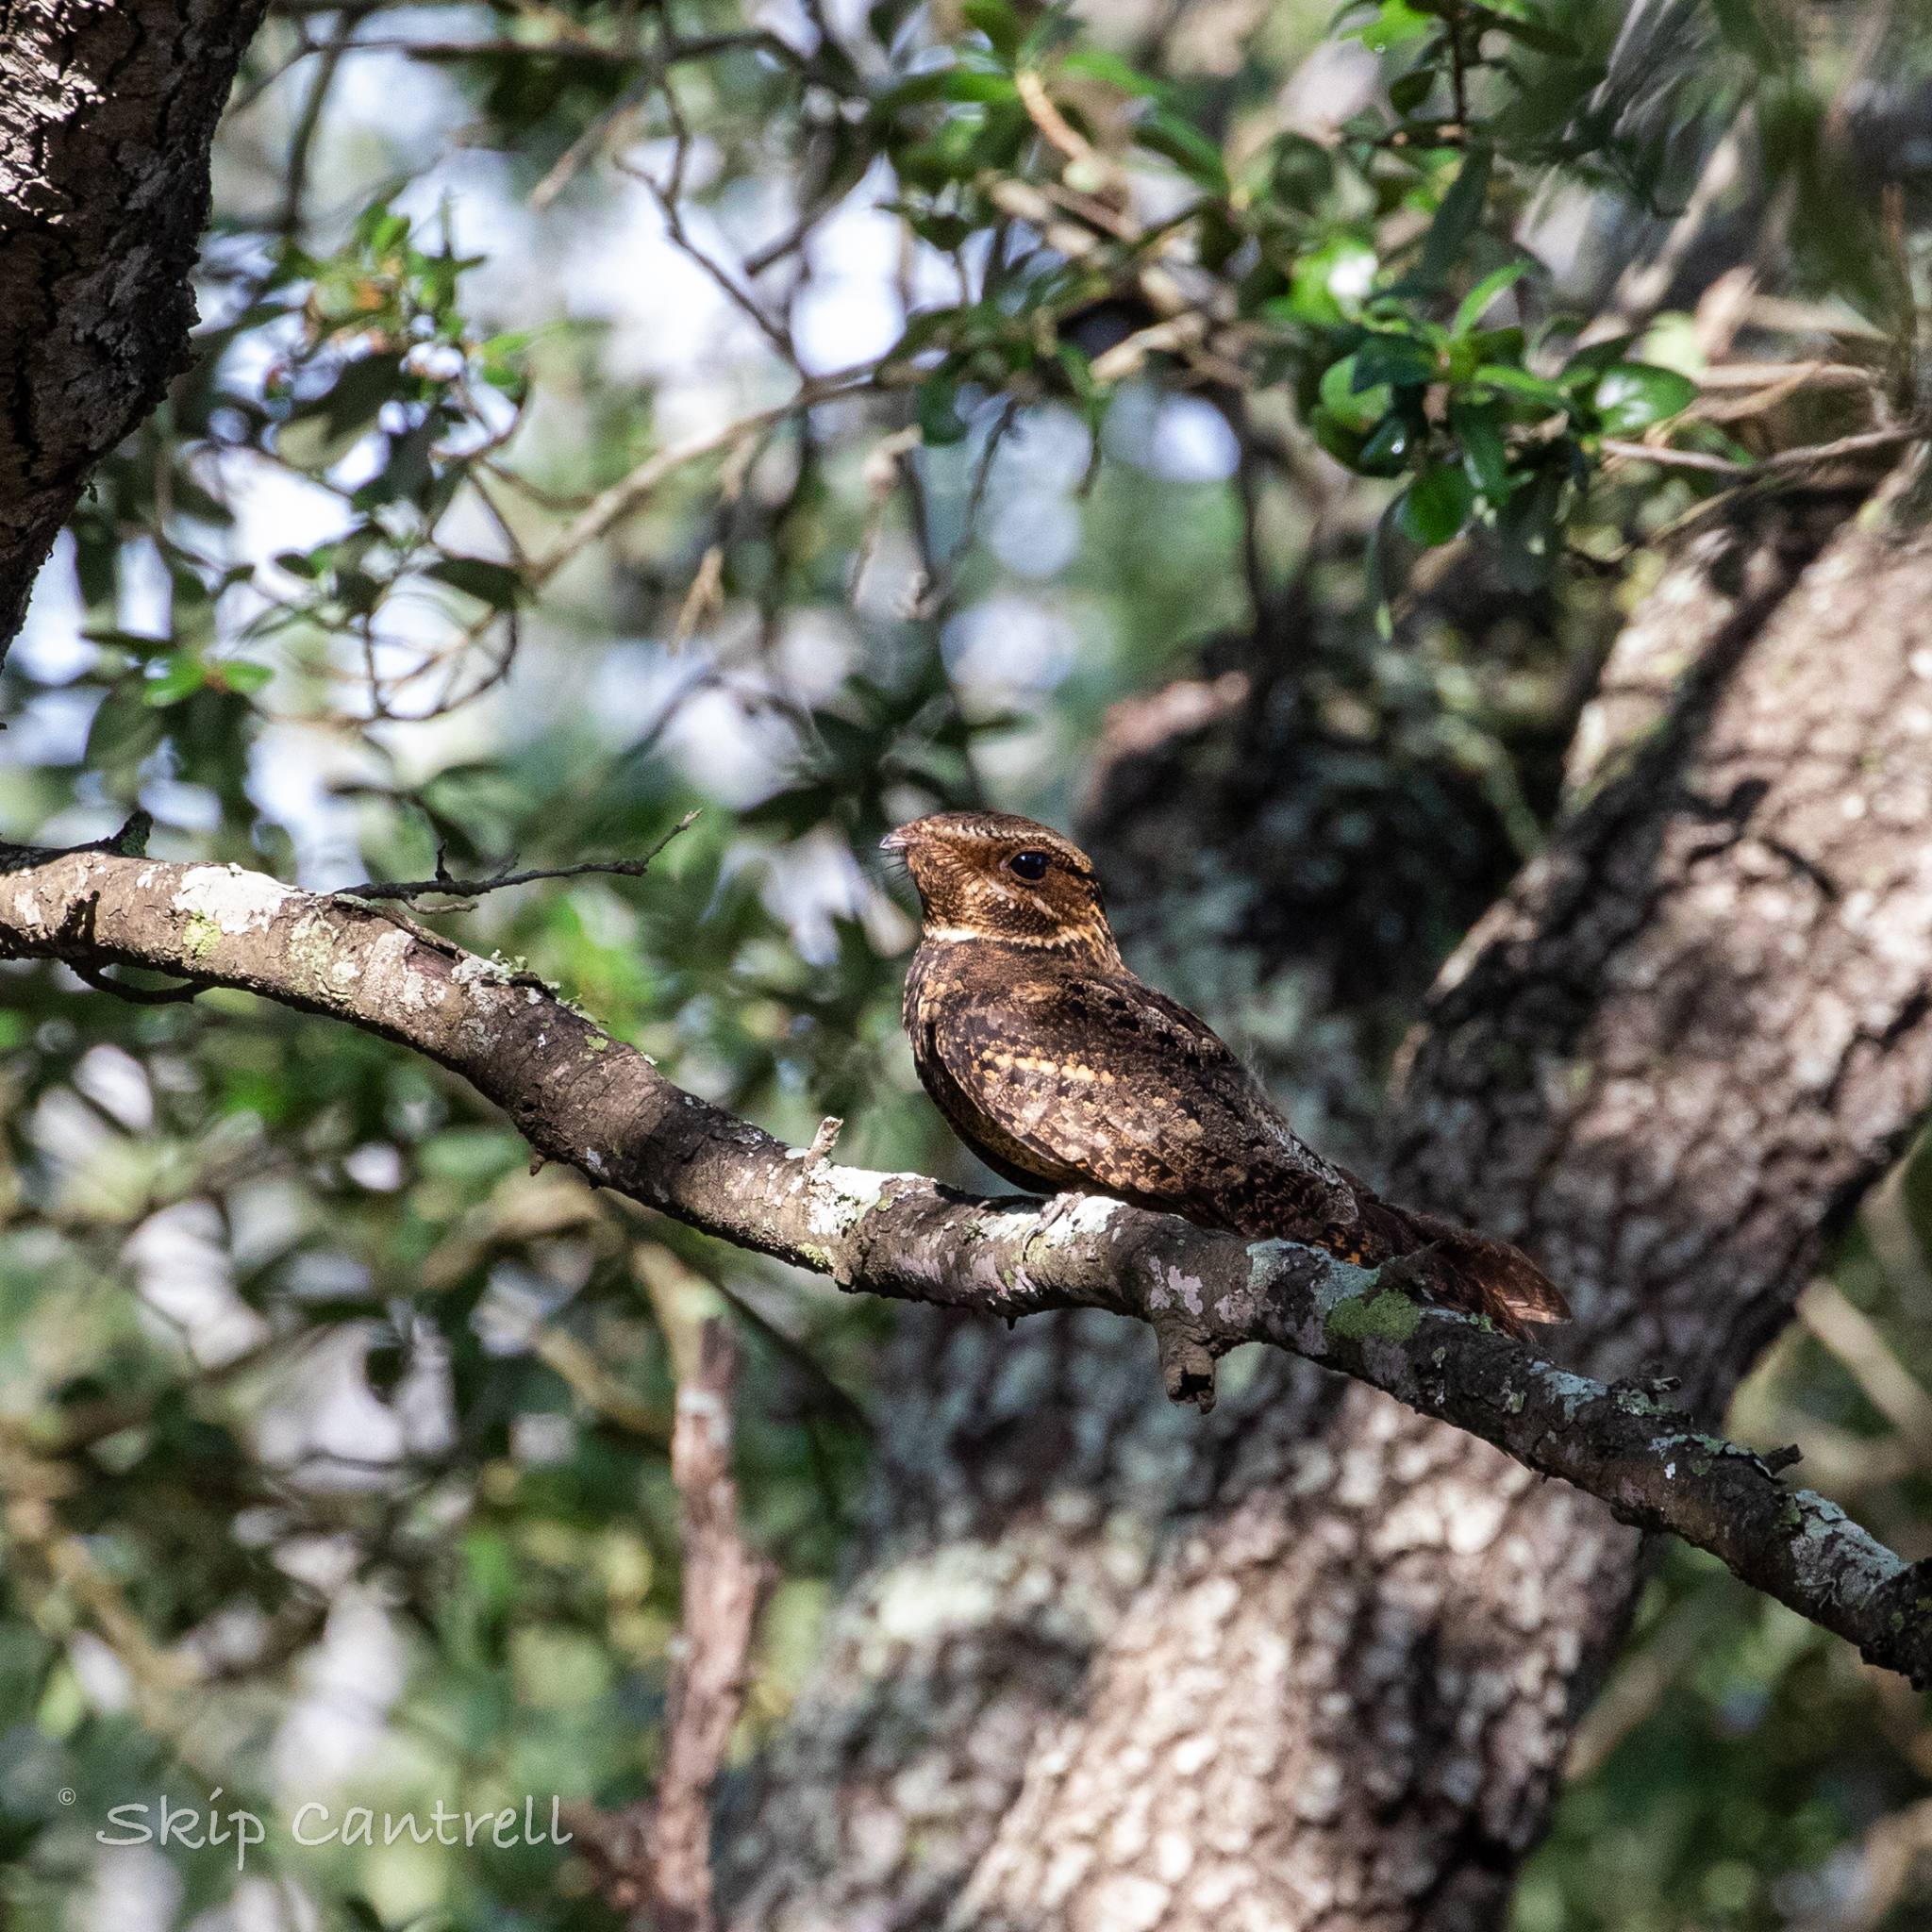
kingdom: Animalia
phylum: Chordata
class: Aves
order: Caprimulgiformes
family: Caprimulgidae
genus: Antrostomus
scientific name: Antrostomus carolinensis
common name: Chuck-will's-widow
